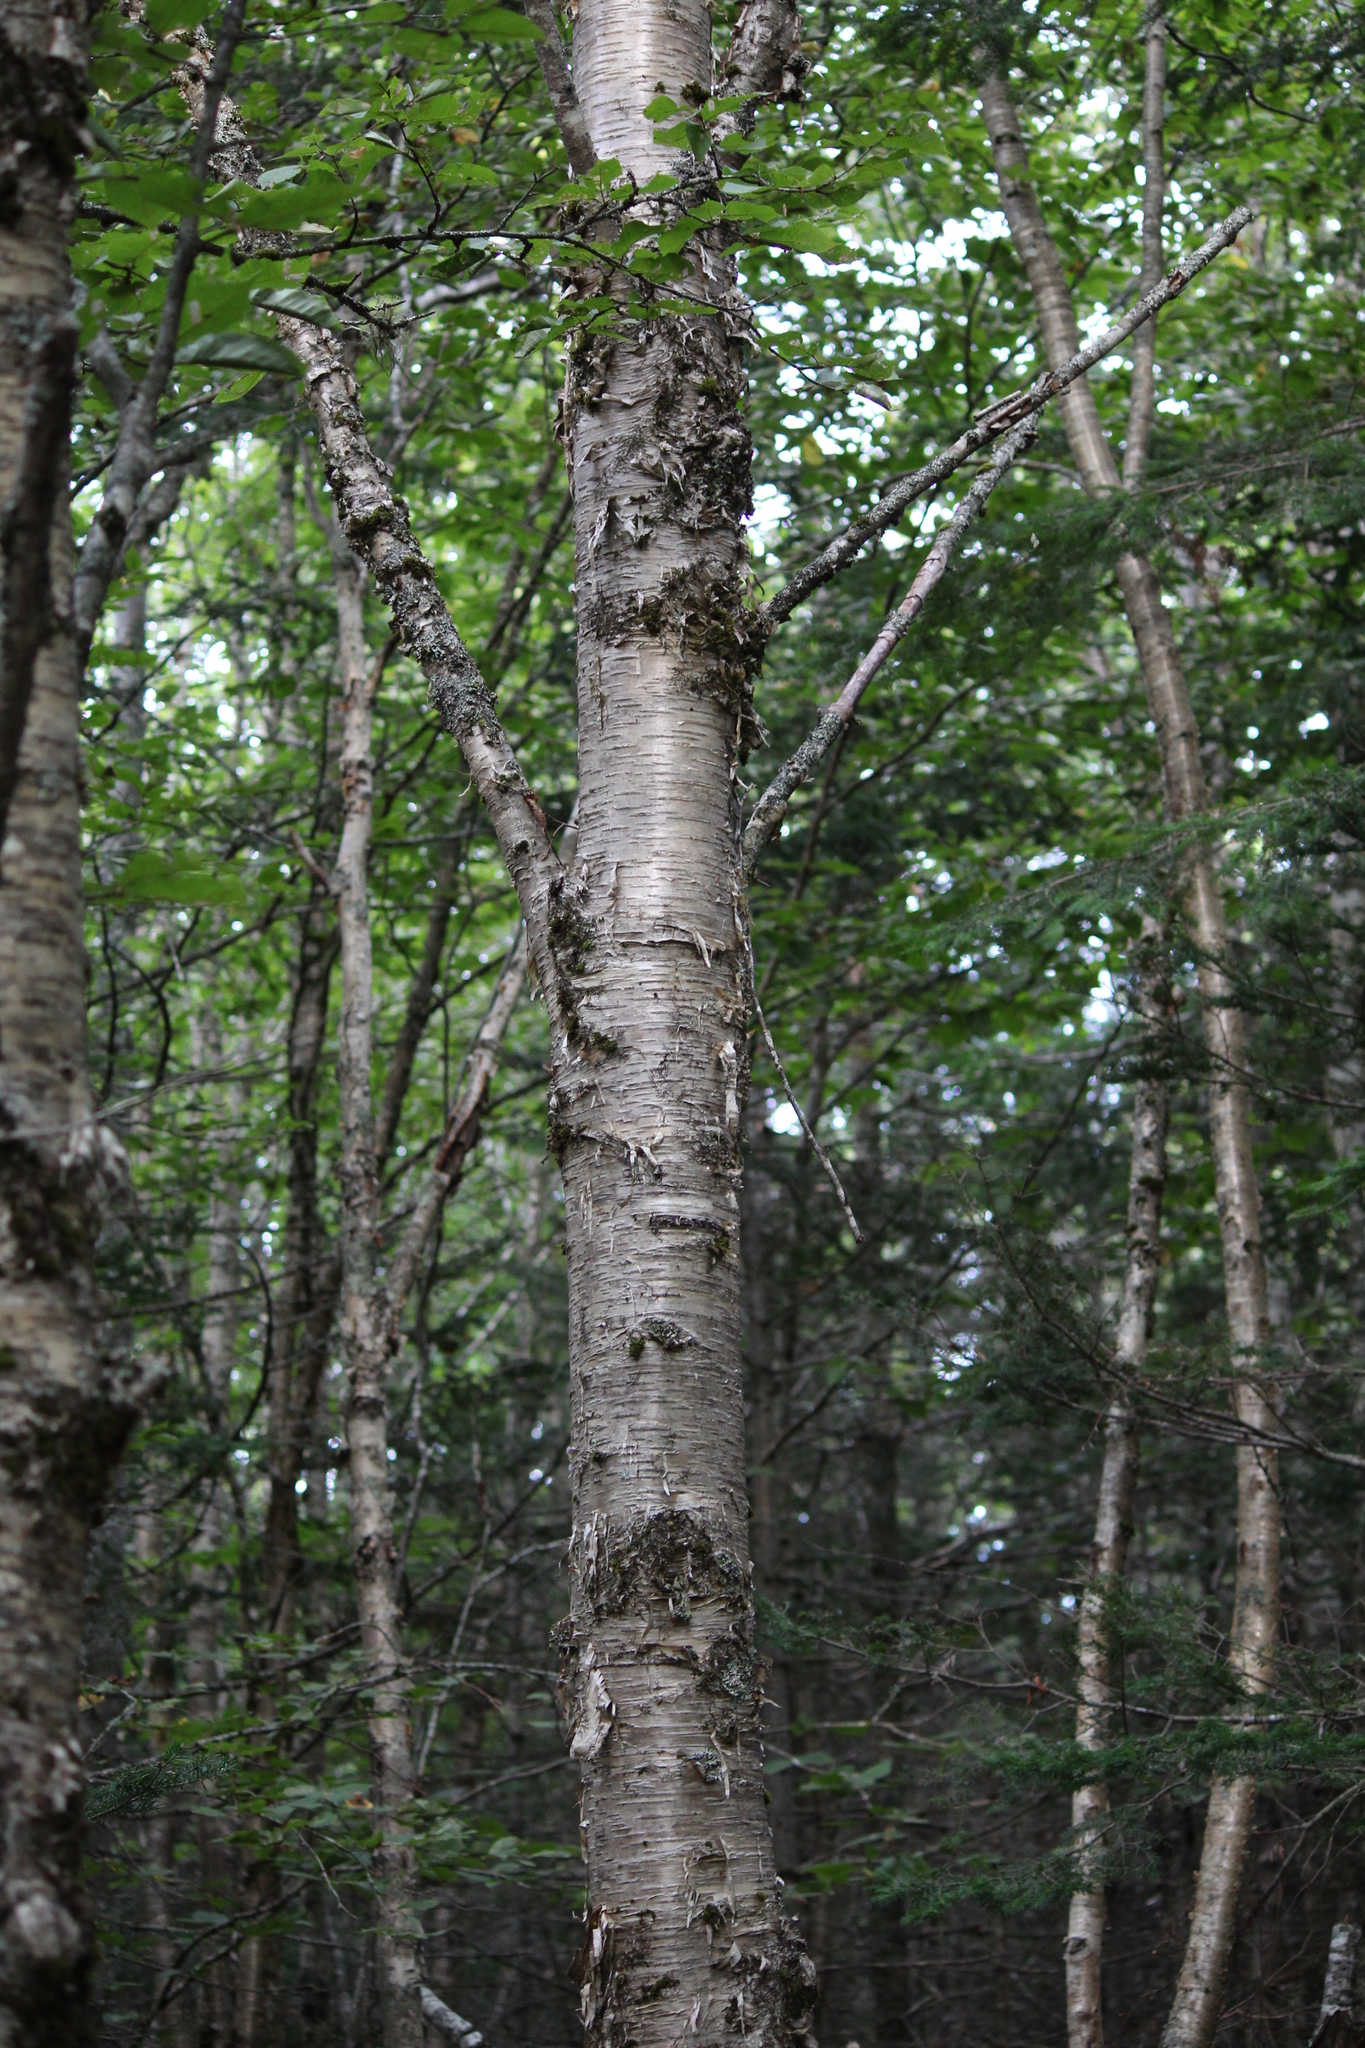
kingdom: Plantae
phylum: Tracheophyta
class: Magnoliopsida
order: Fagales
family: Betulaceae
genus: Betula
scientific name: Betula alleghaniensis
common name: Yellow birch
